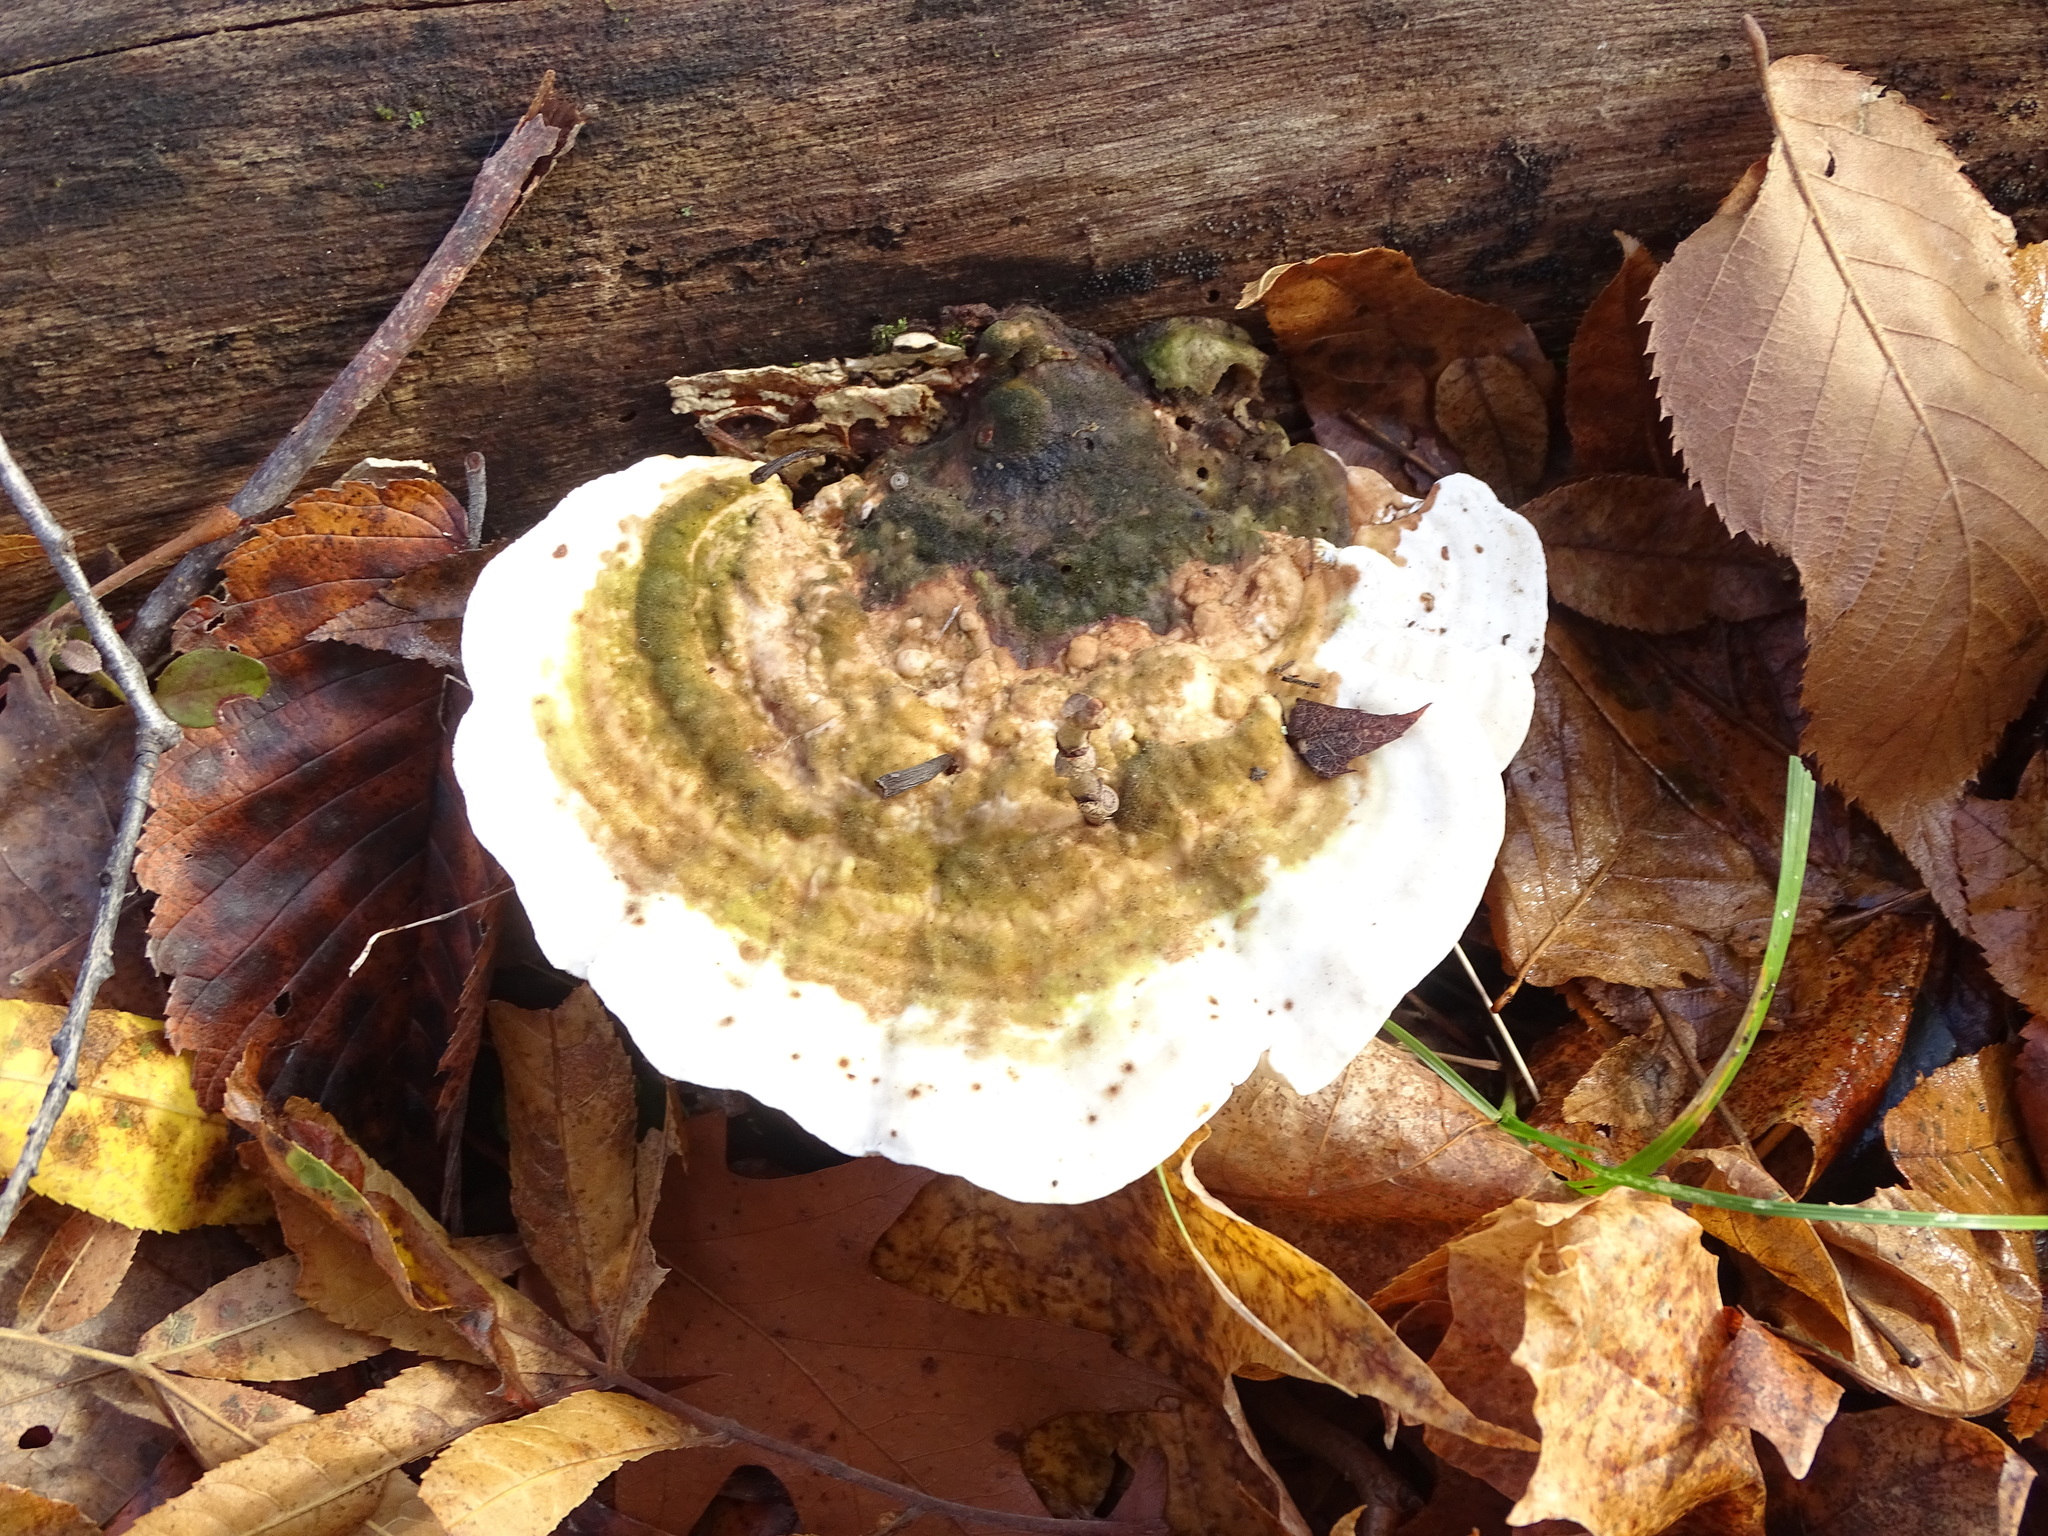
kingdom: Fungi
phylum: Basidiomycota
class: Agaricomycetes
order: Polyporales
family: Polyporaceae
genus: Trametes
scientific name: Trametes gibbosa
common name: Lumpy bracket
